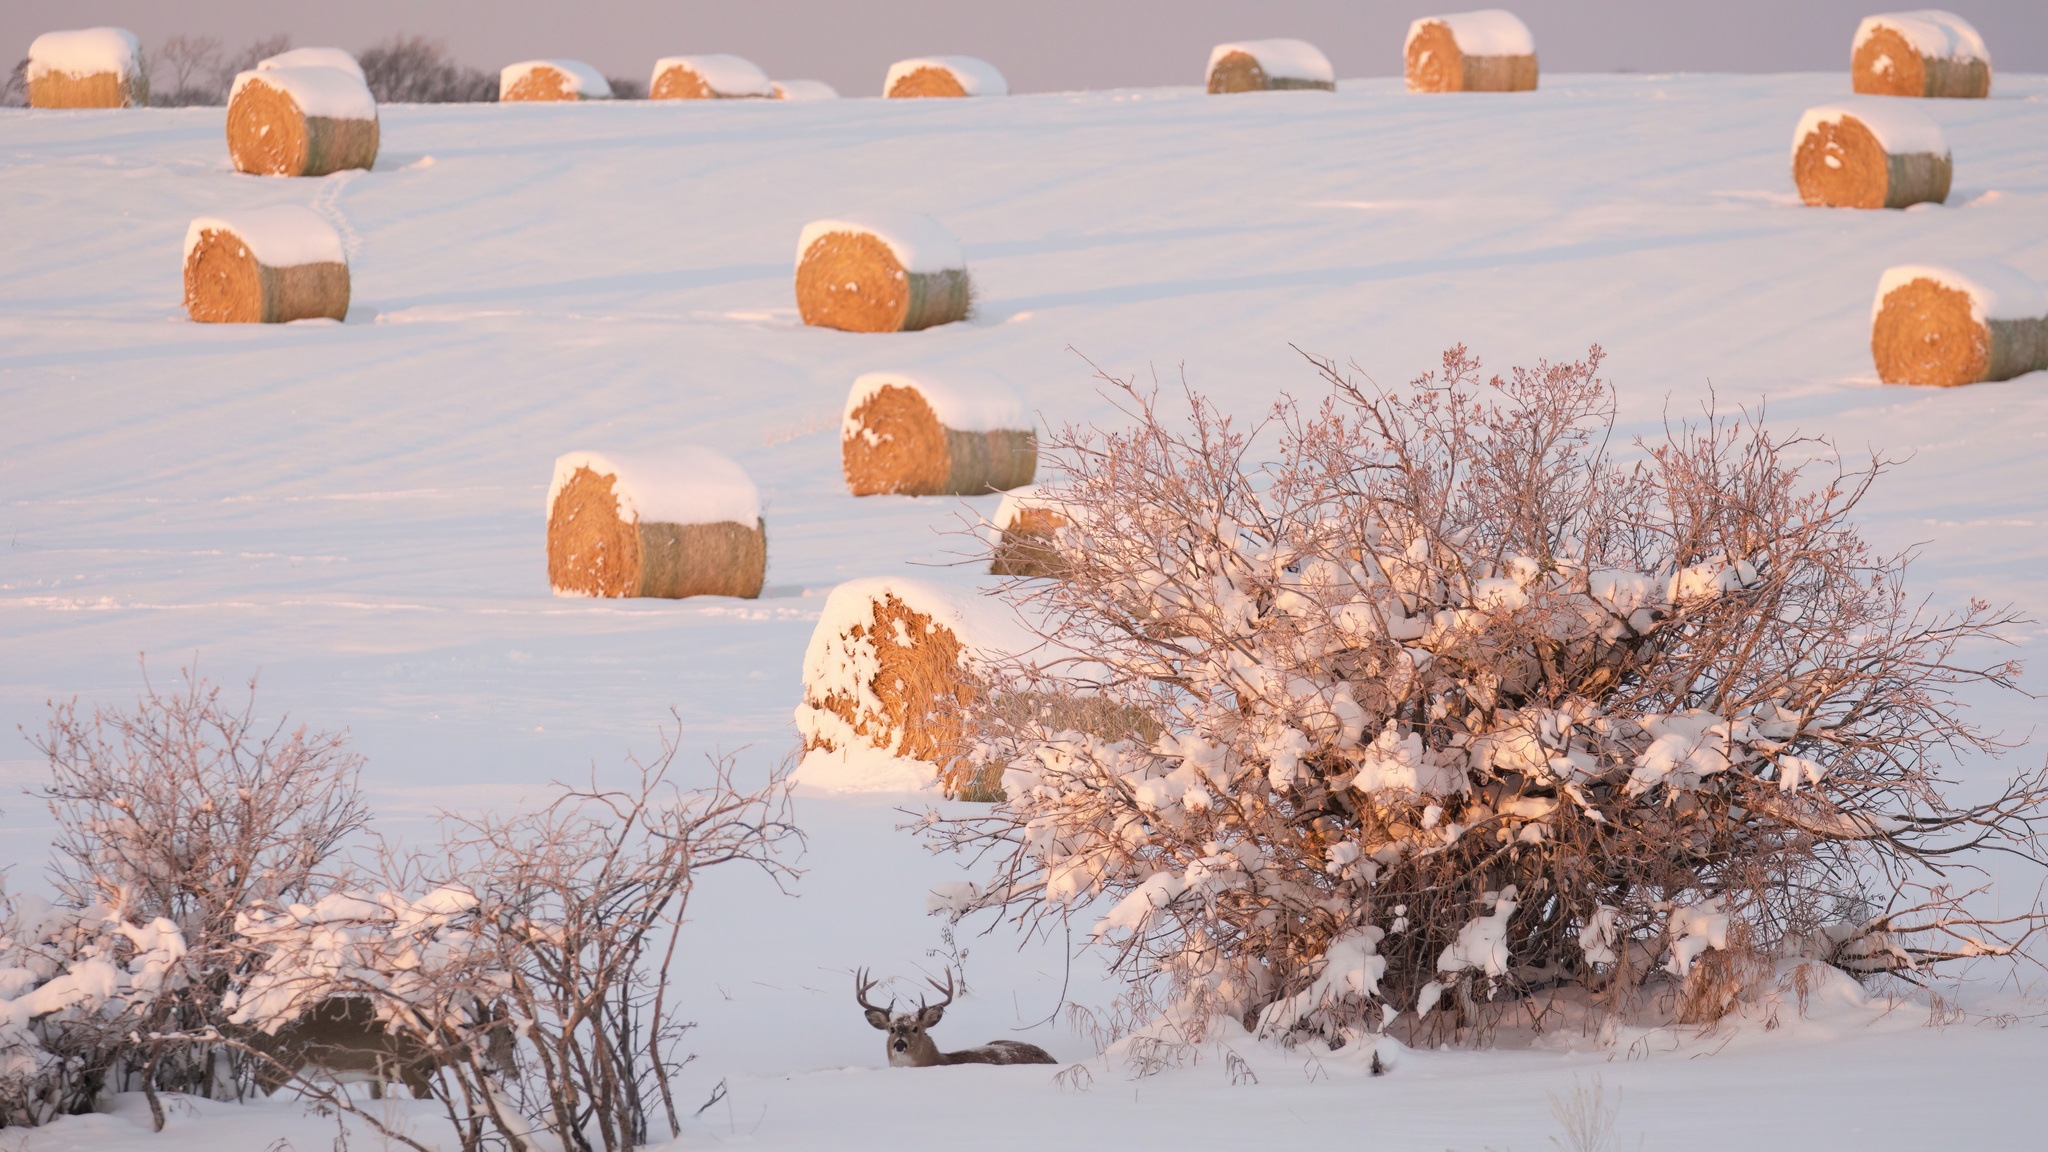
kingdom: Animalia
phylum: Chordata
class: Mammalia
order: Artiodactyla
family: Cervidae
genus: Odocoileus
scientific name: Odocoileus virginianus
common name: White-tailed deer
